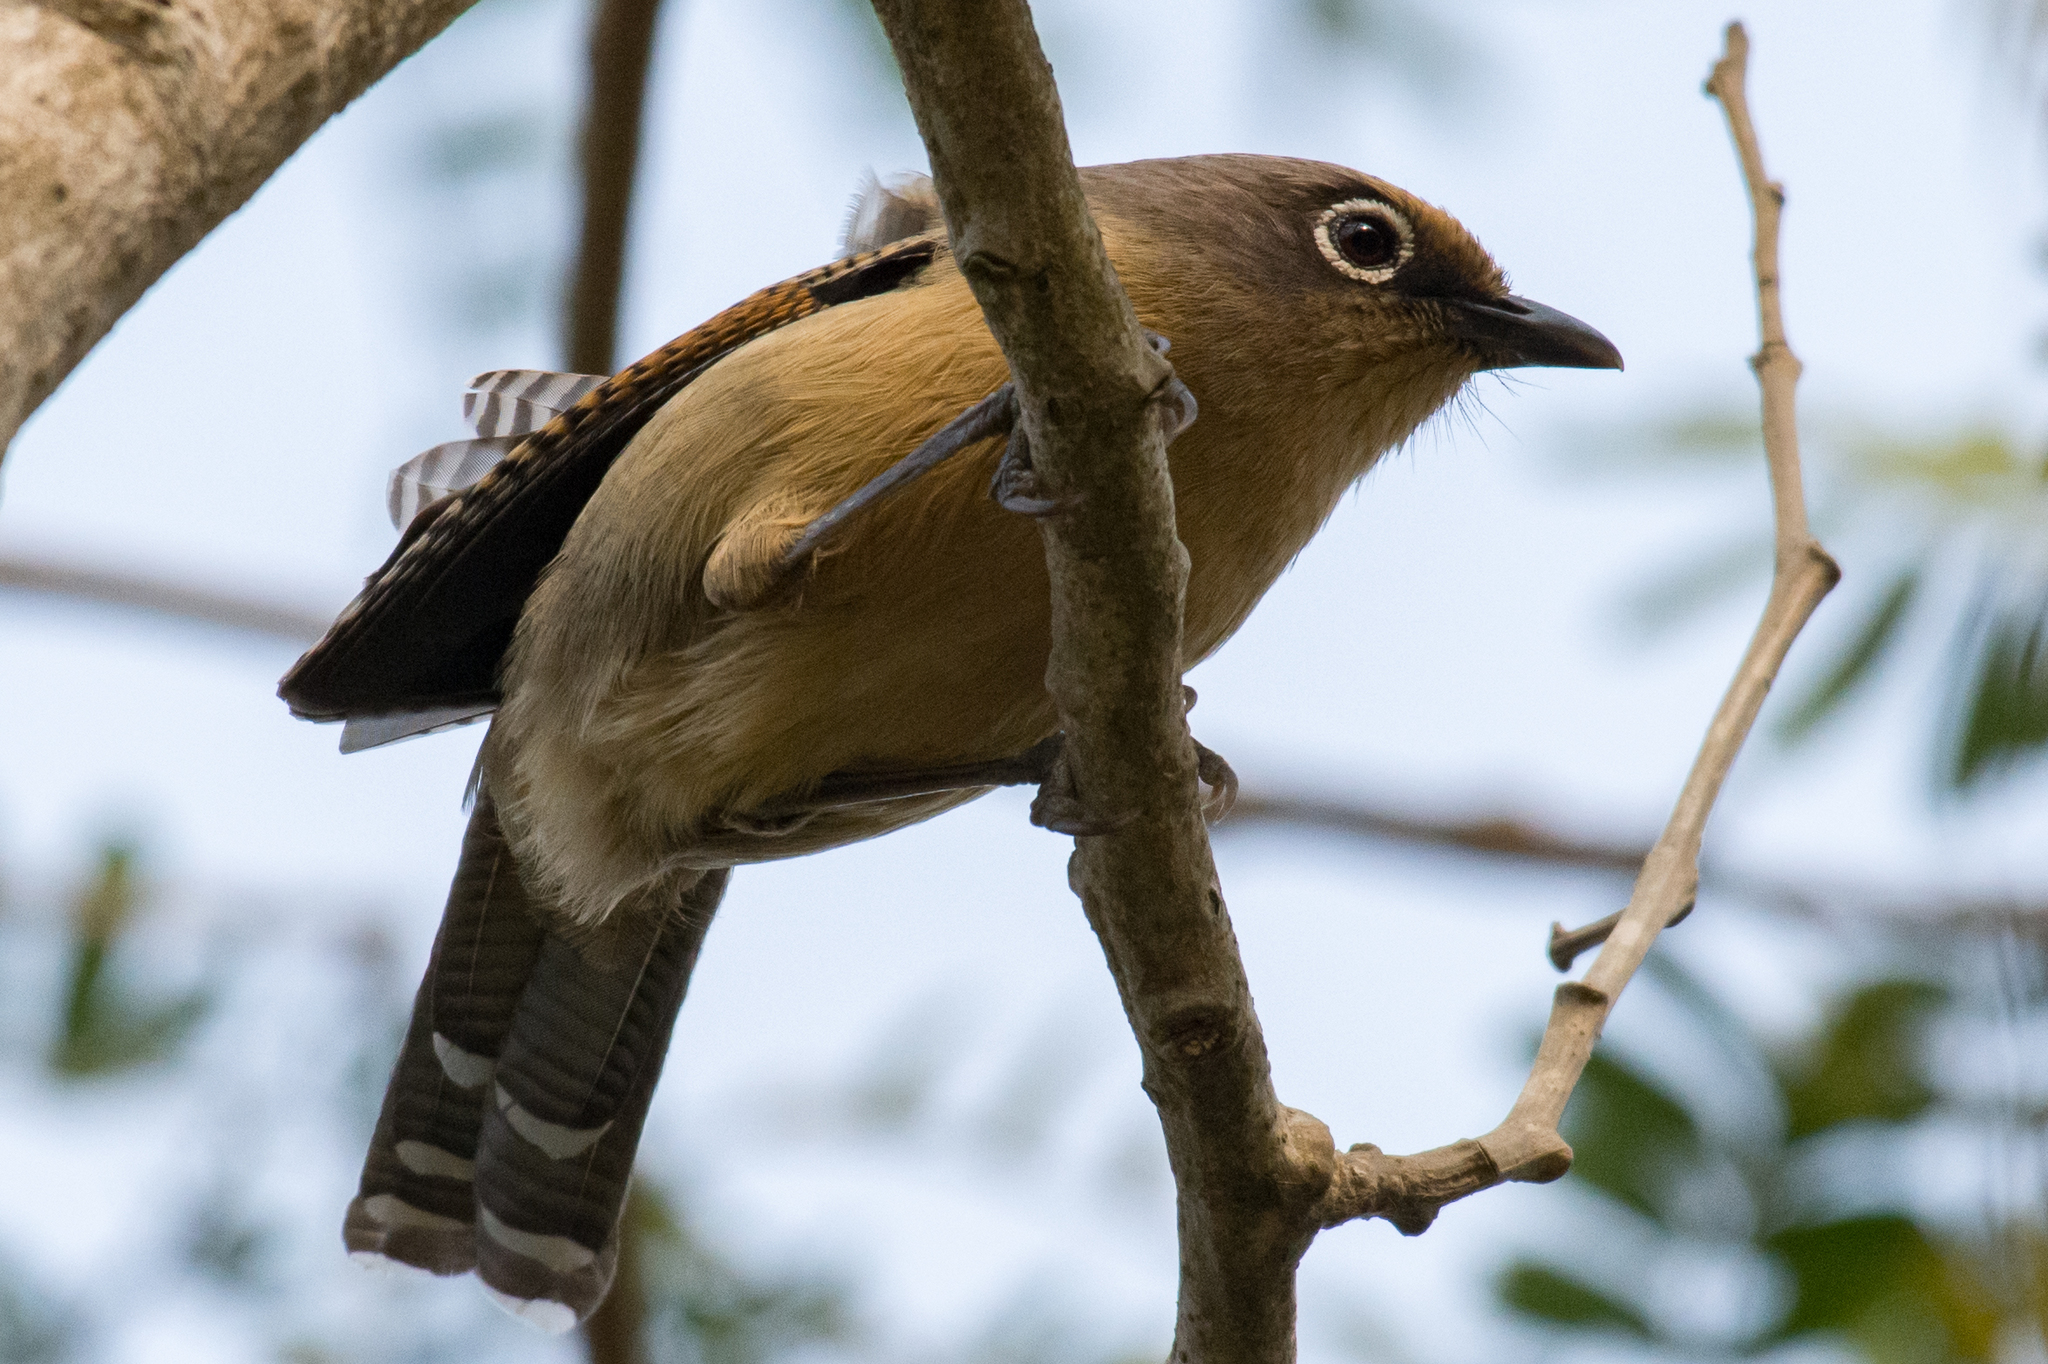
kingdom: Animalia
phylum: Chordata
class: Aves
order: Passeriformes
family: Leiothrichidae
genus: Actinodura
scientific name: Actinodura ramsayi
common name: Spectacled barwing
